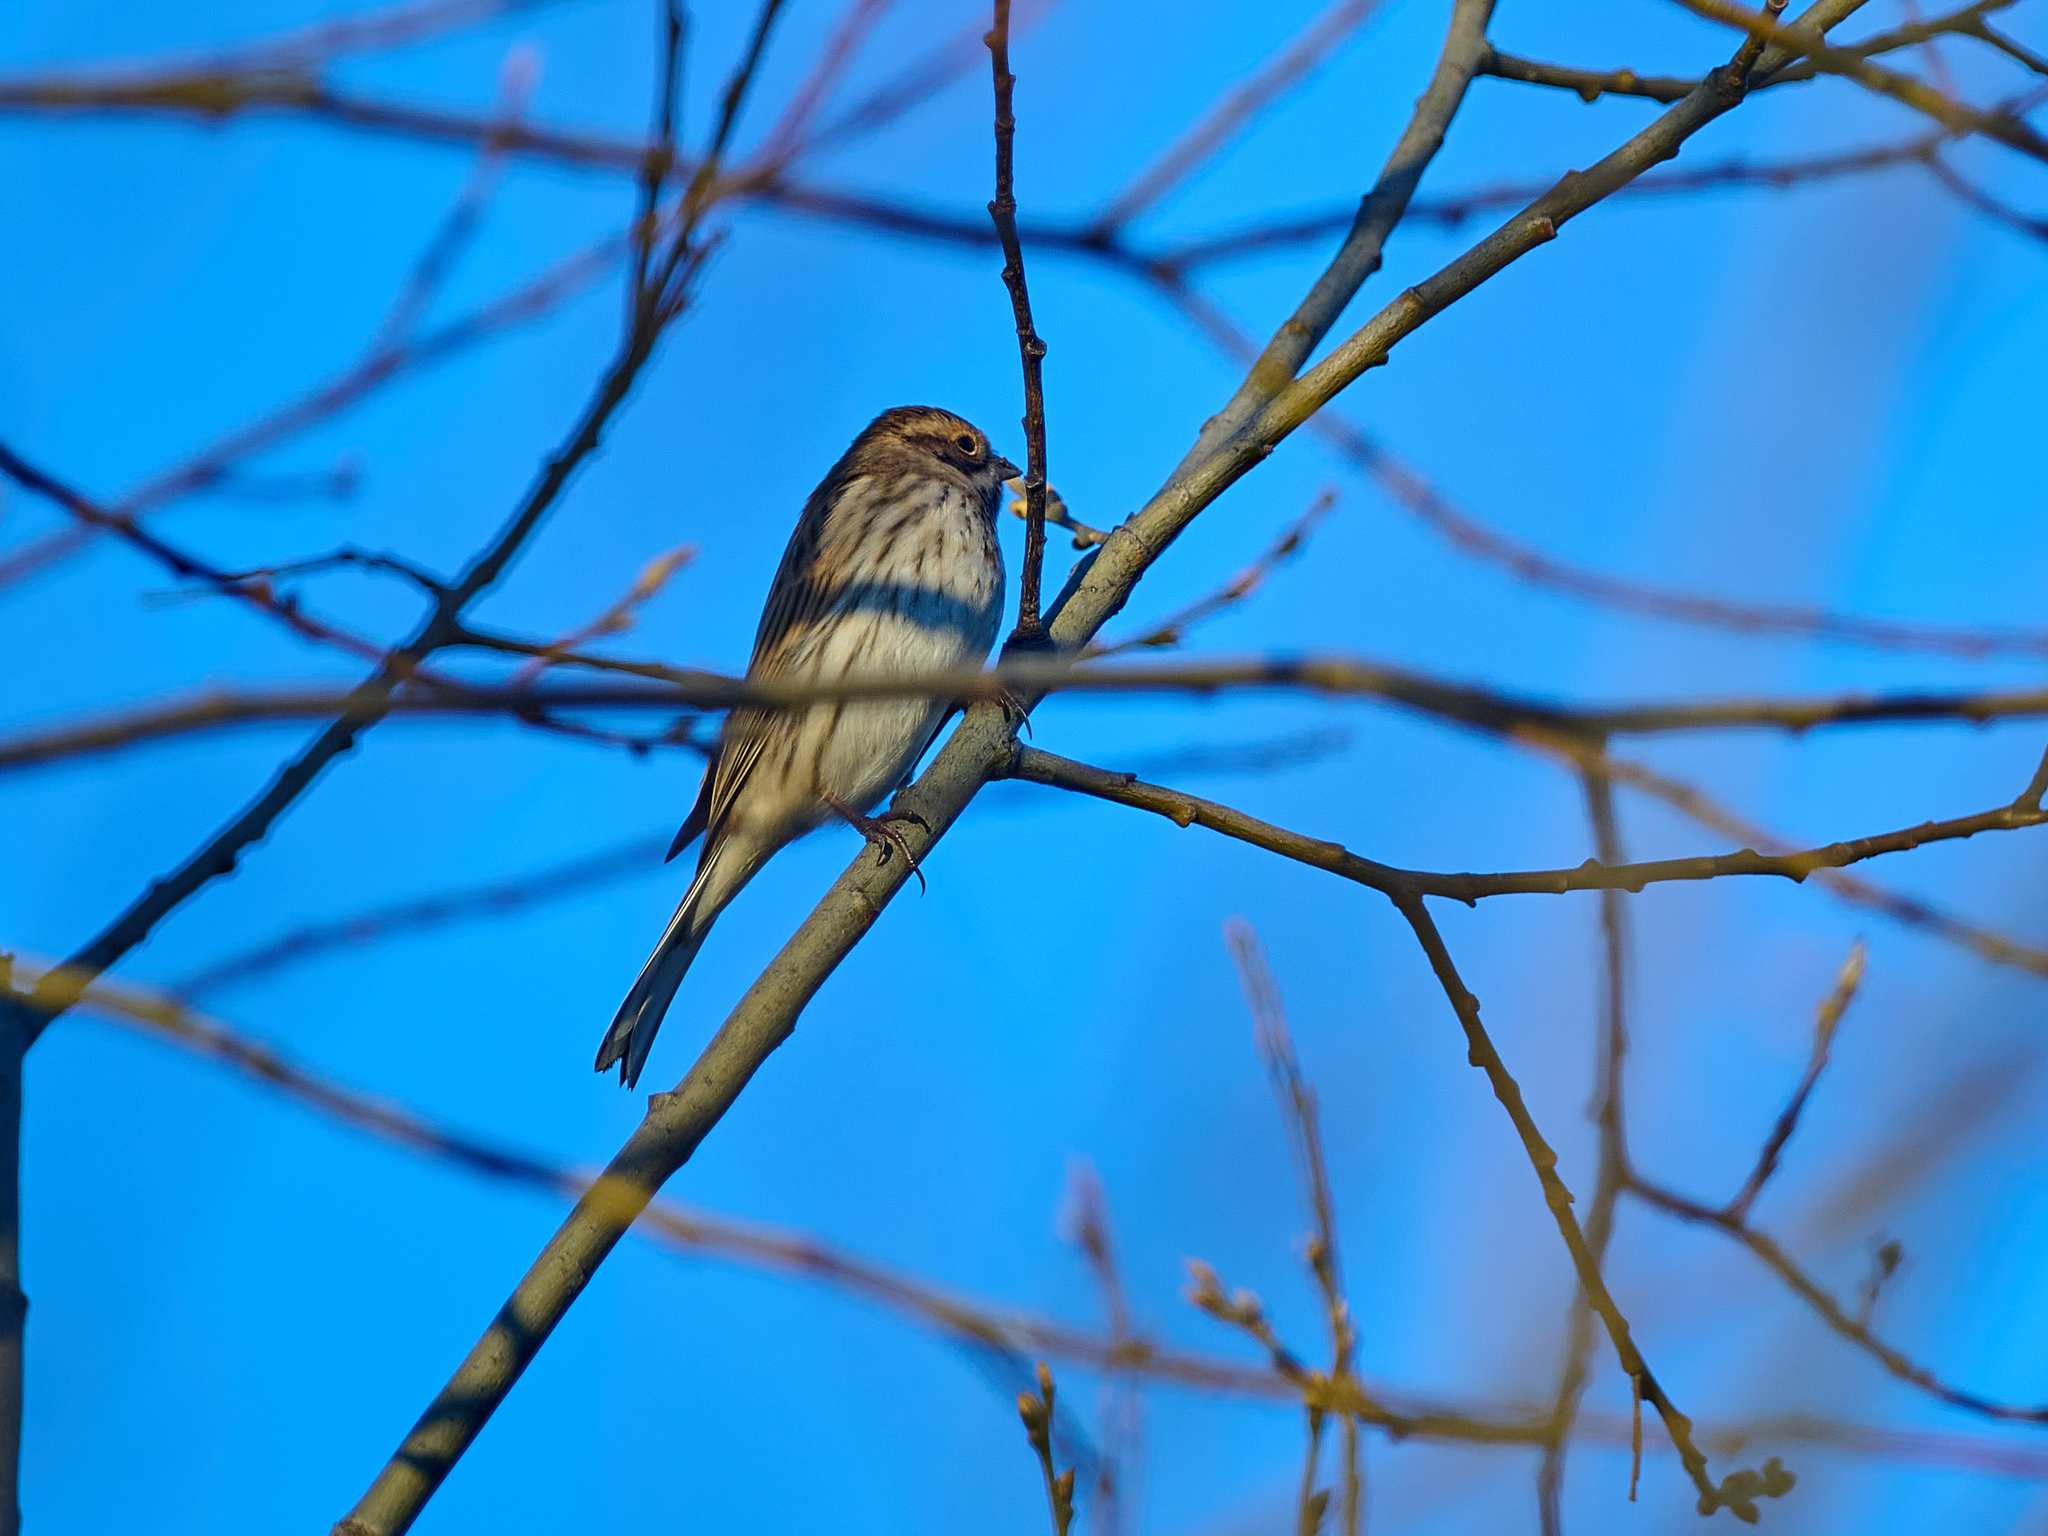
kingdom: Animalia
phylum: Chordata
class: Aves
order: Passeriformes
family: Emberizidae
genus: Emberiza
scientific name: Emberiza schoeniclus
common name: Reed bunting
